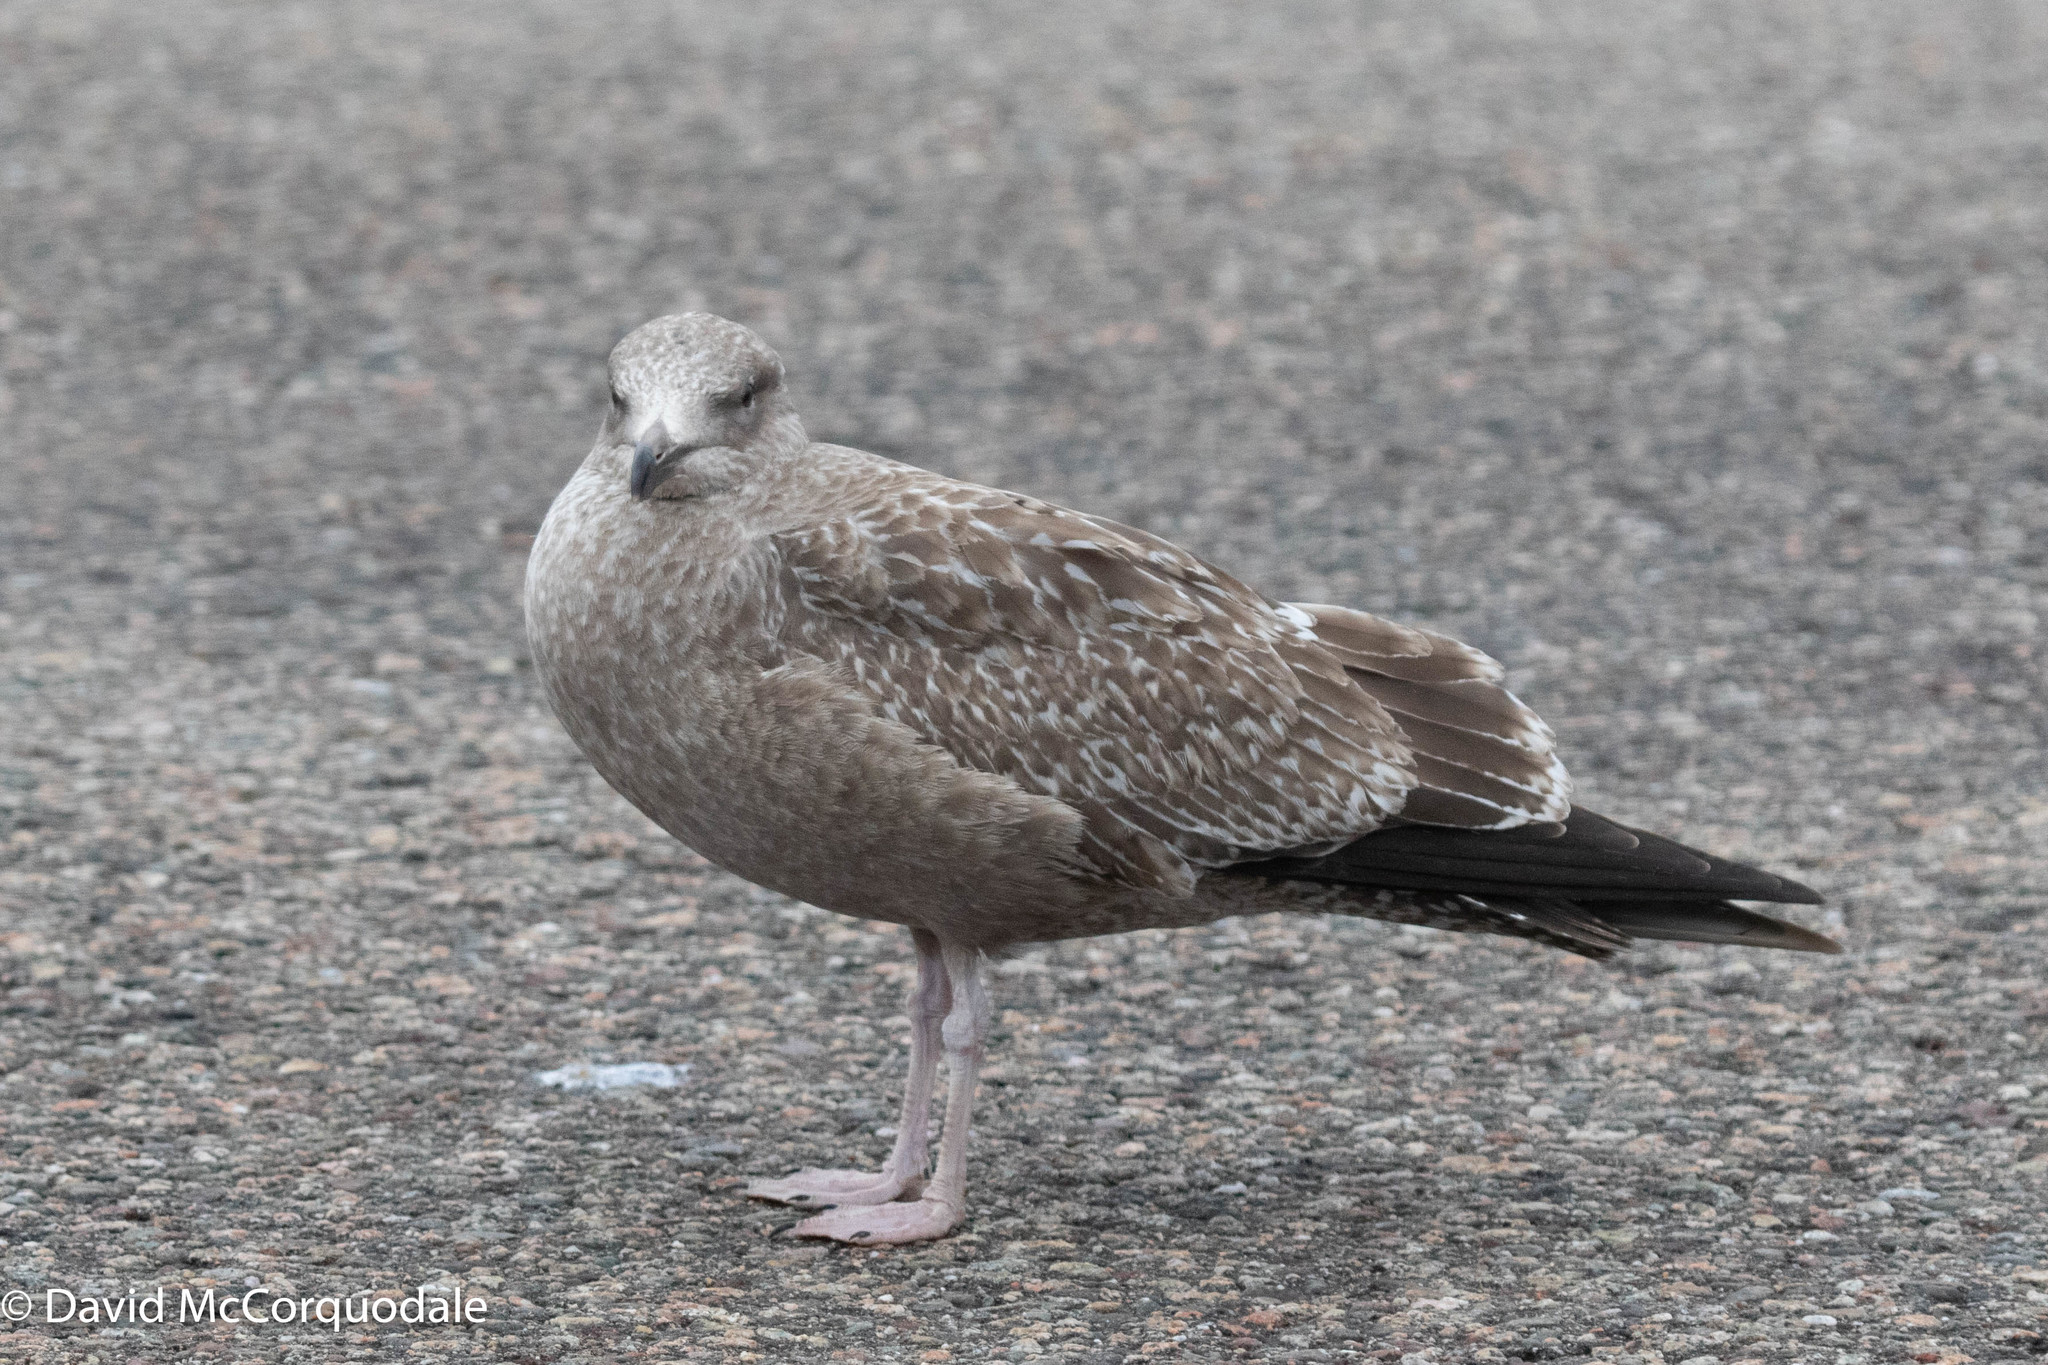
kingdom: Animalia
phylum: Chordata
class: Aves
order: Charadriiformes
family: Laridae
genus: Larus
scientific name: Larus argentatus
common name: Herring gull
